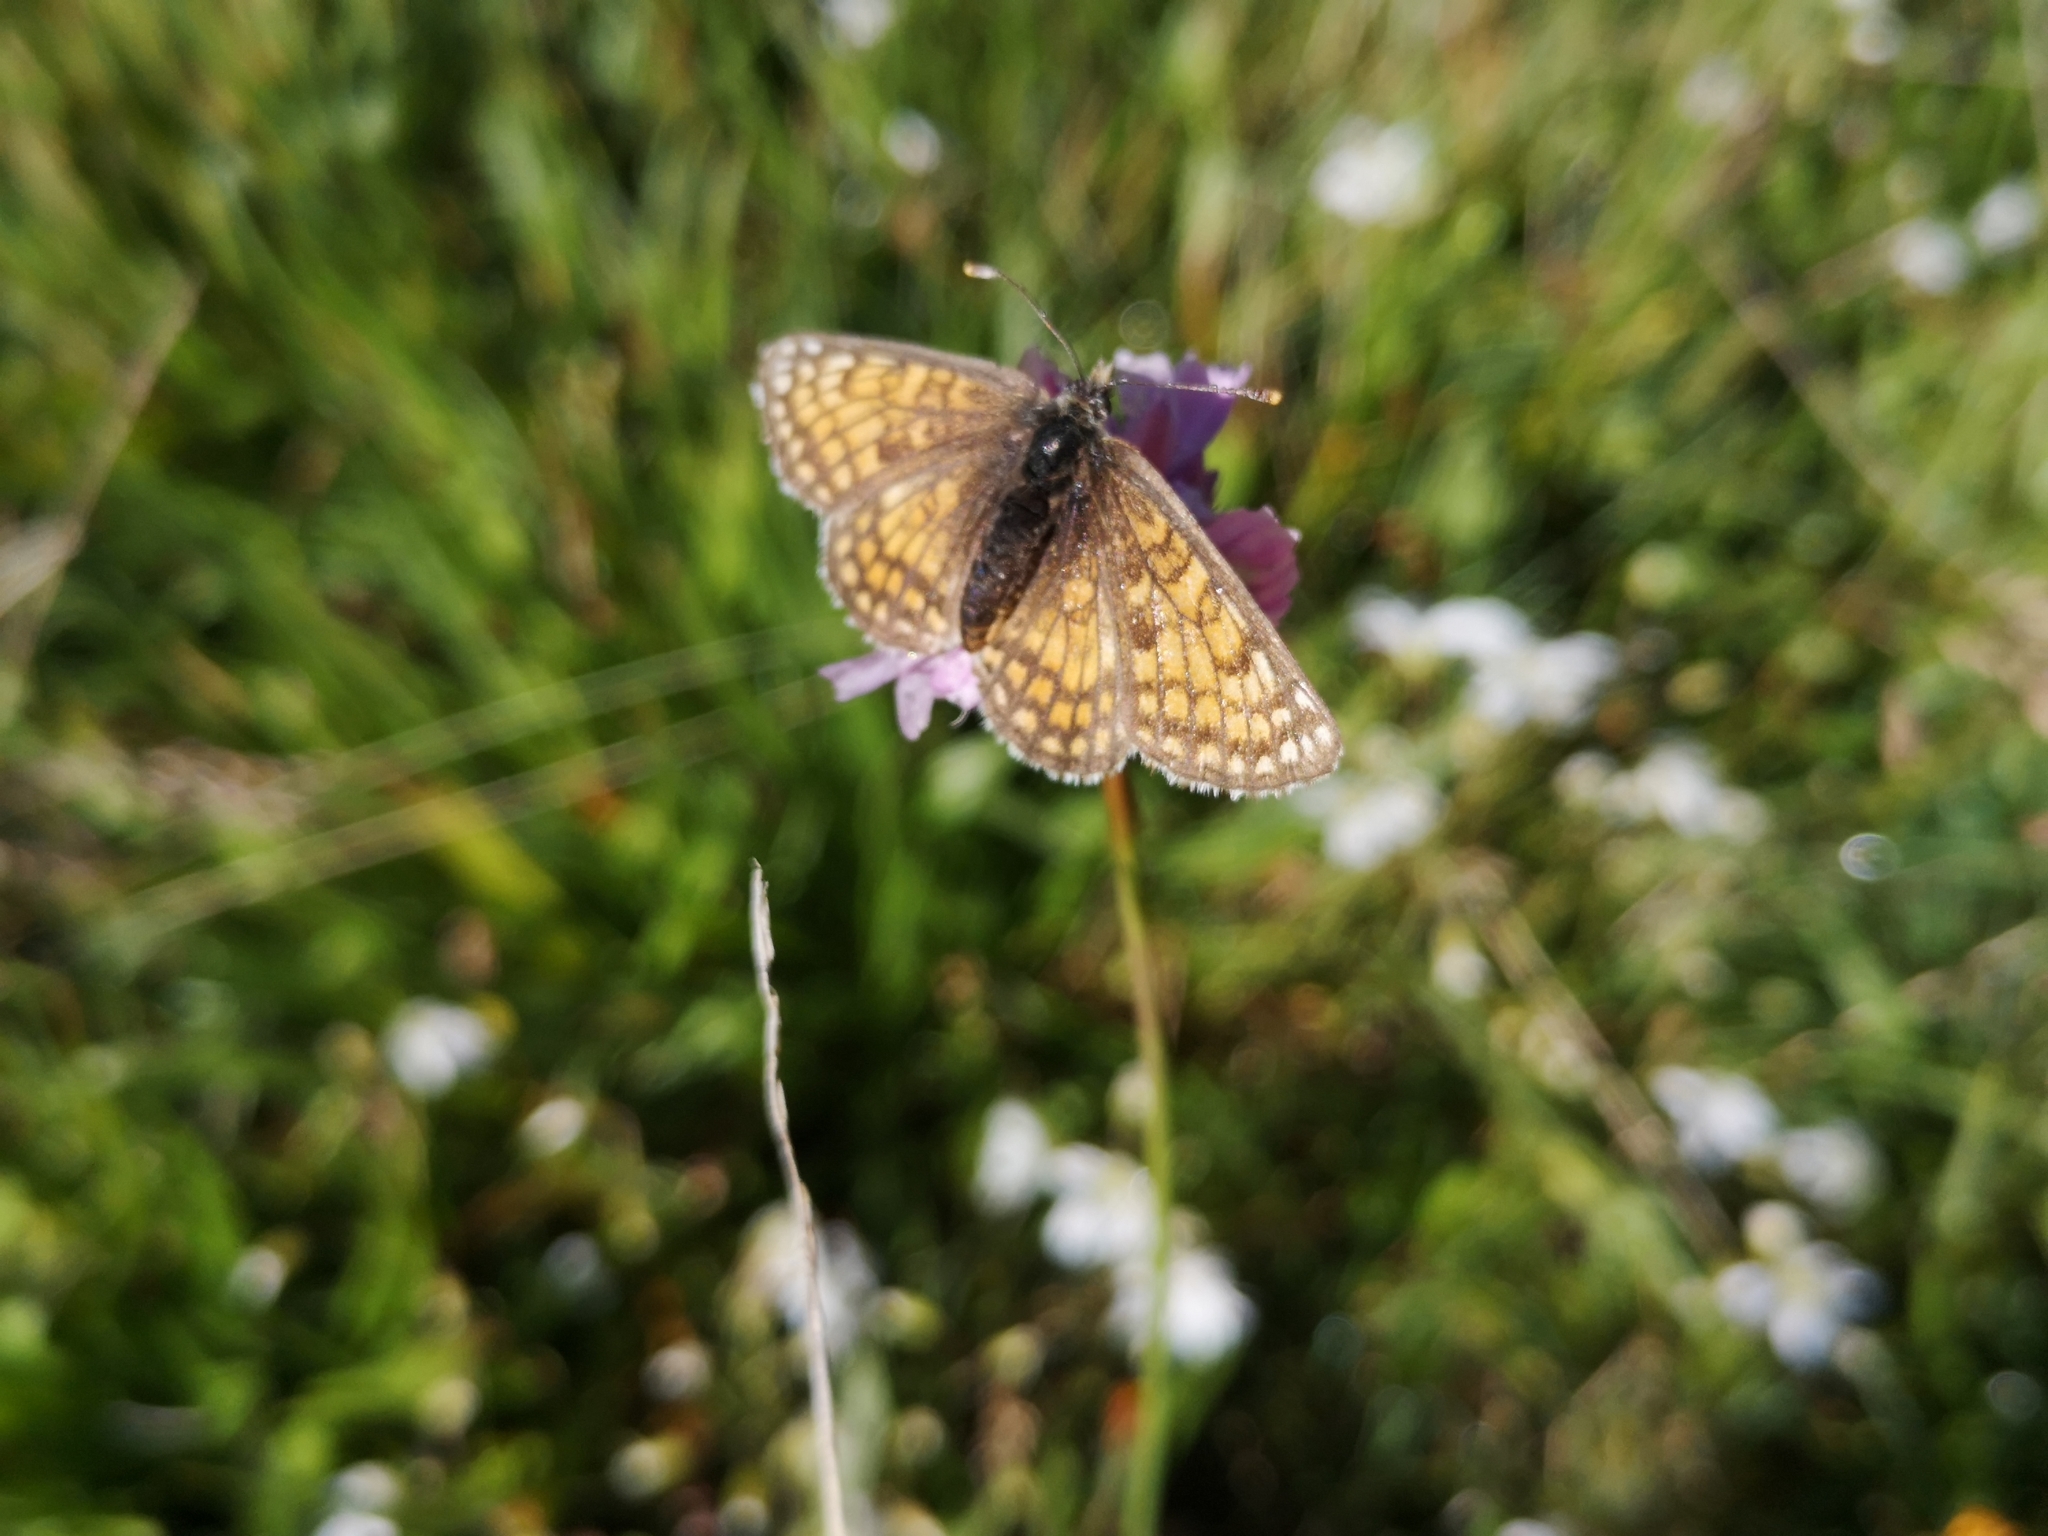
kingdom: Animalia
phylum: Arthropoda
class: Insecta
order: Lepidoptera
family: Nymphalidae
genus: Melitaea
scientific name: Melitaea varia
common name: Grisons fritillary
